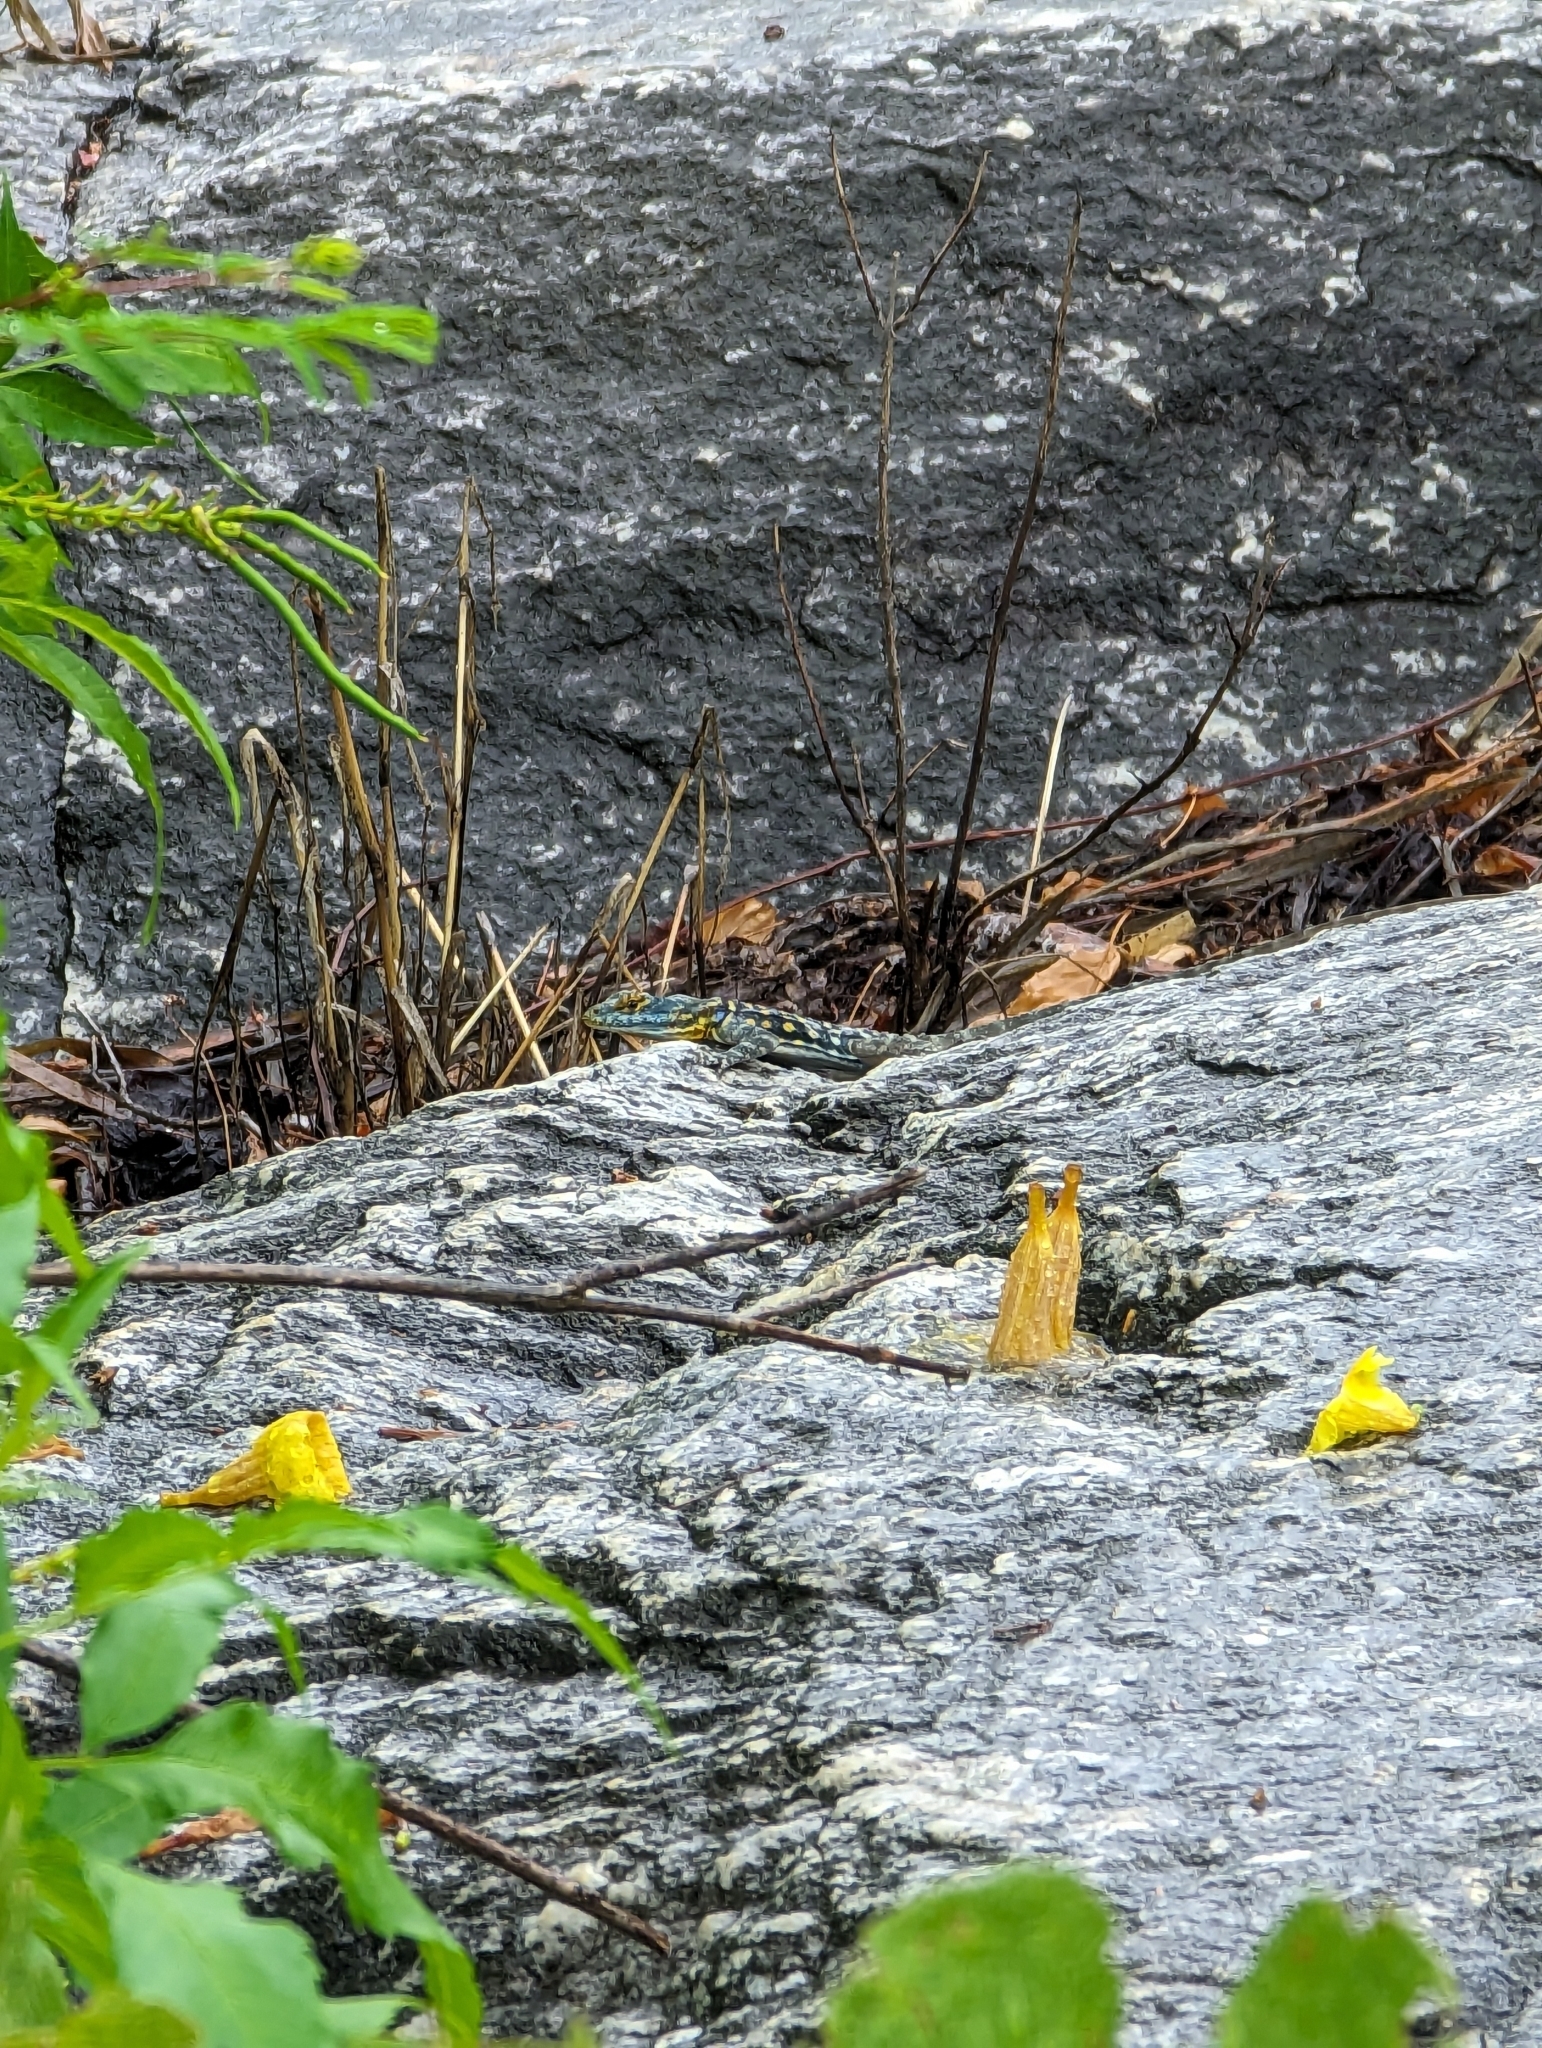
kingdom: Animalia
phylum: Chordata
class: Squamata
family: Phrynosomatidae
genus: Petrosaurus
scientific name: Petrosaurus thalassinus
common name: Baja california rock lizard
